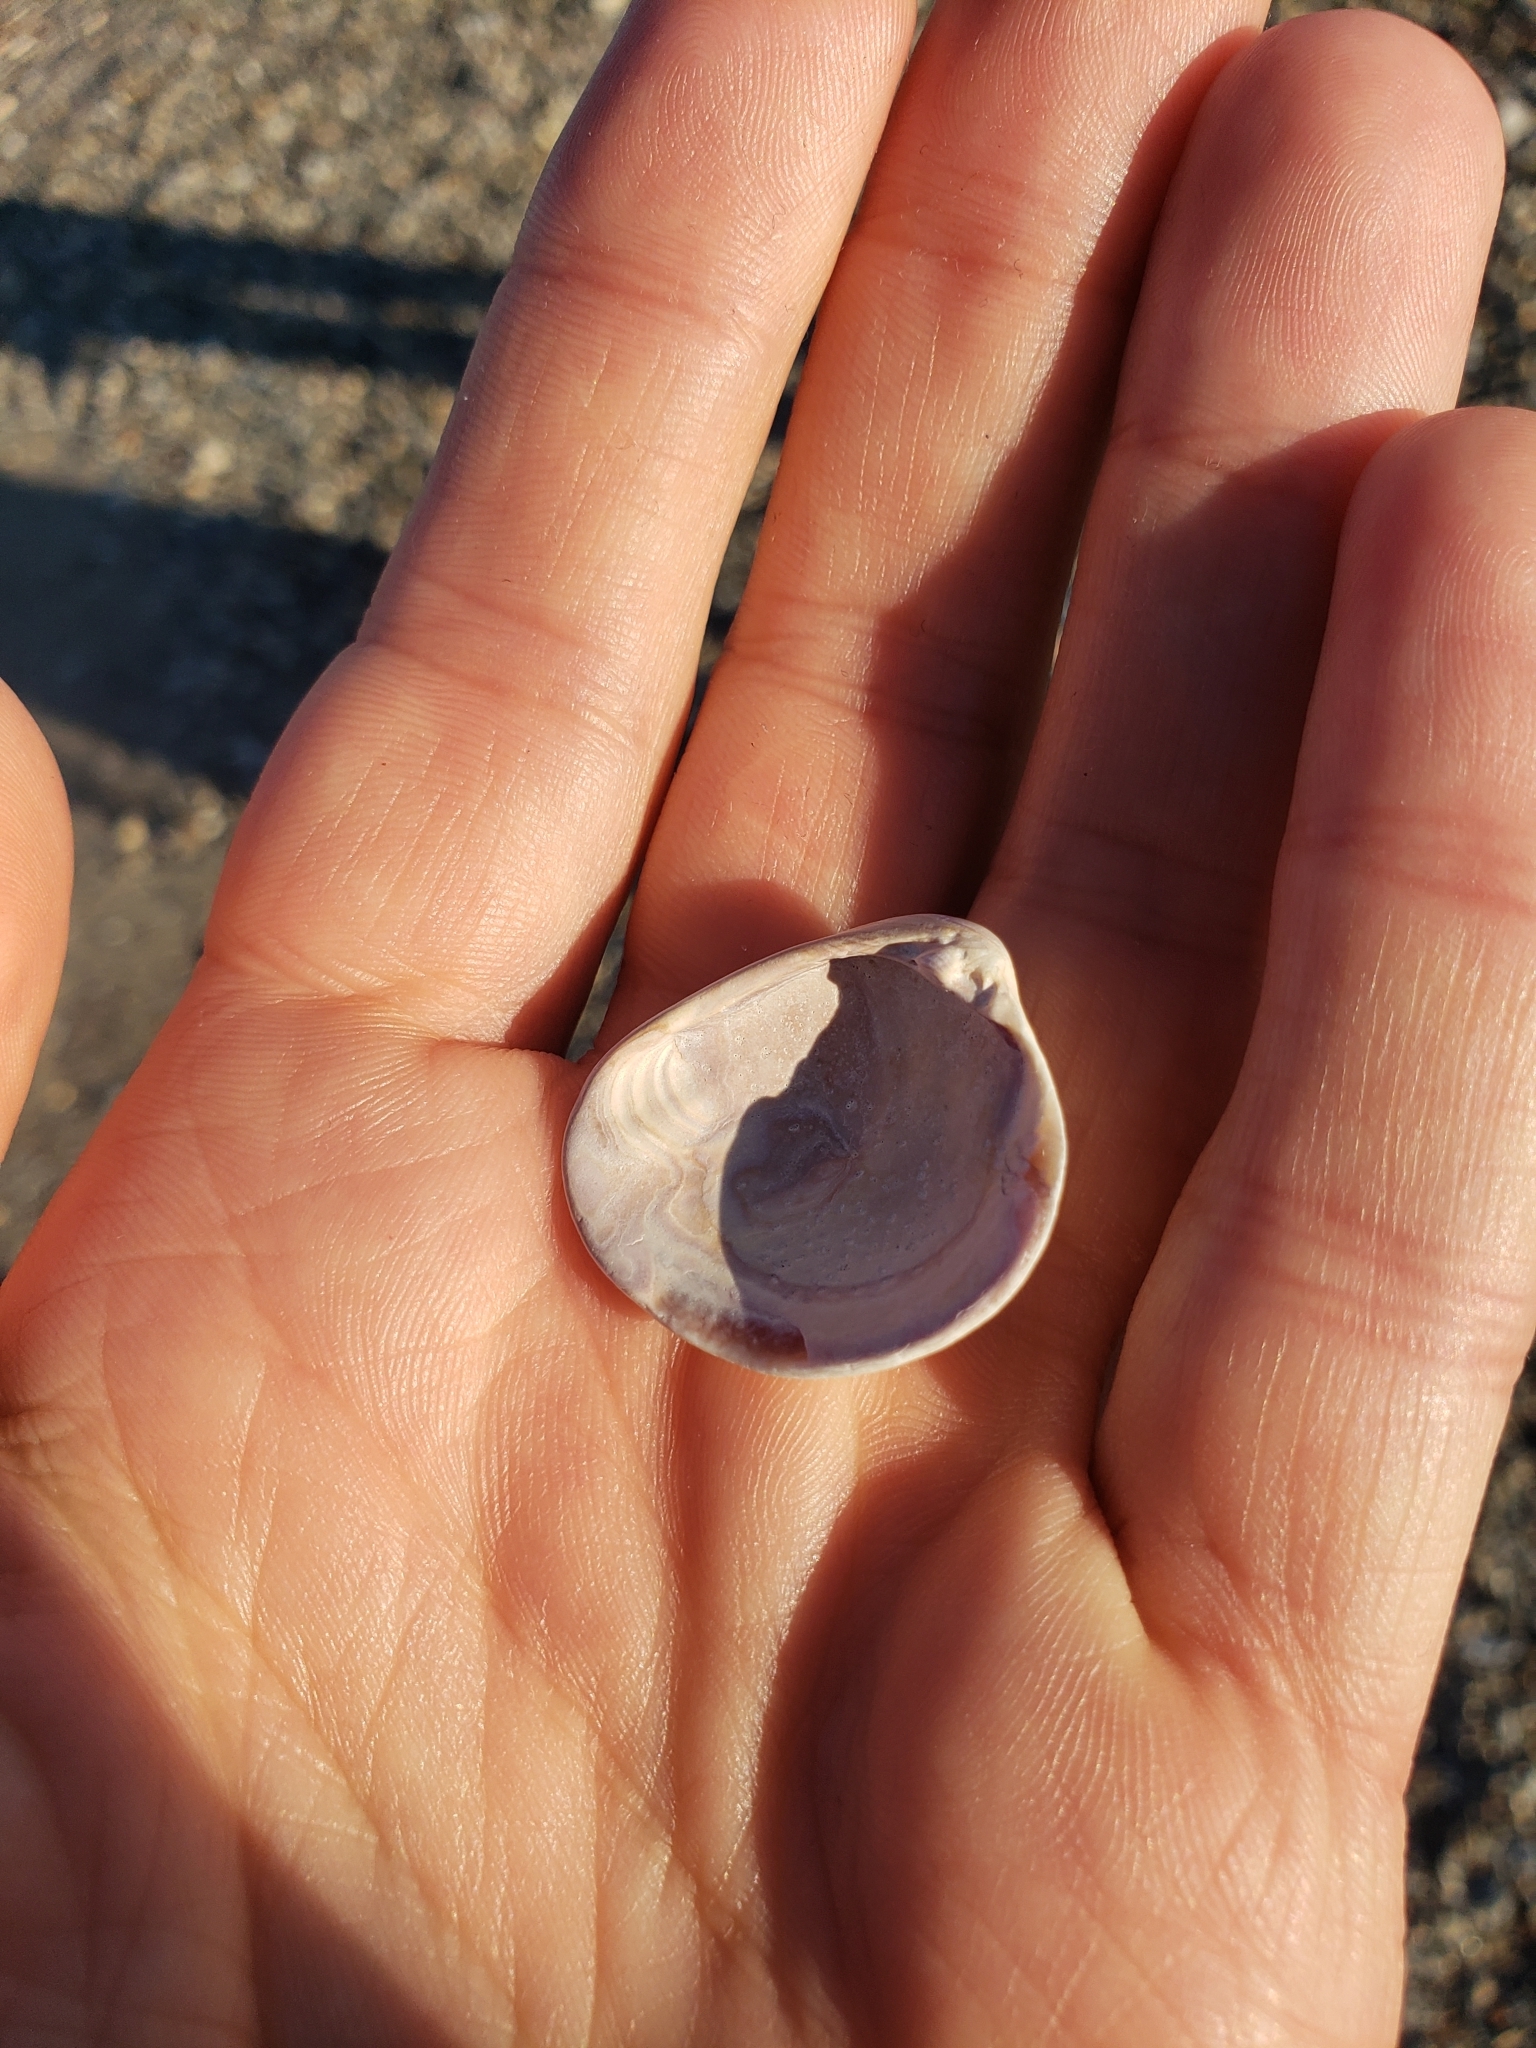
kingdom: Animalia
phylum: Mollusca
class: Bivalvia
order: Venerida
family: Veneridae
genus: Chione
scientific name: Chione elevata
